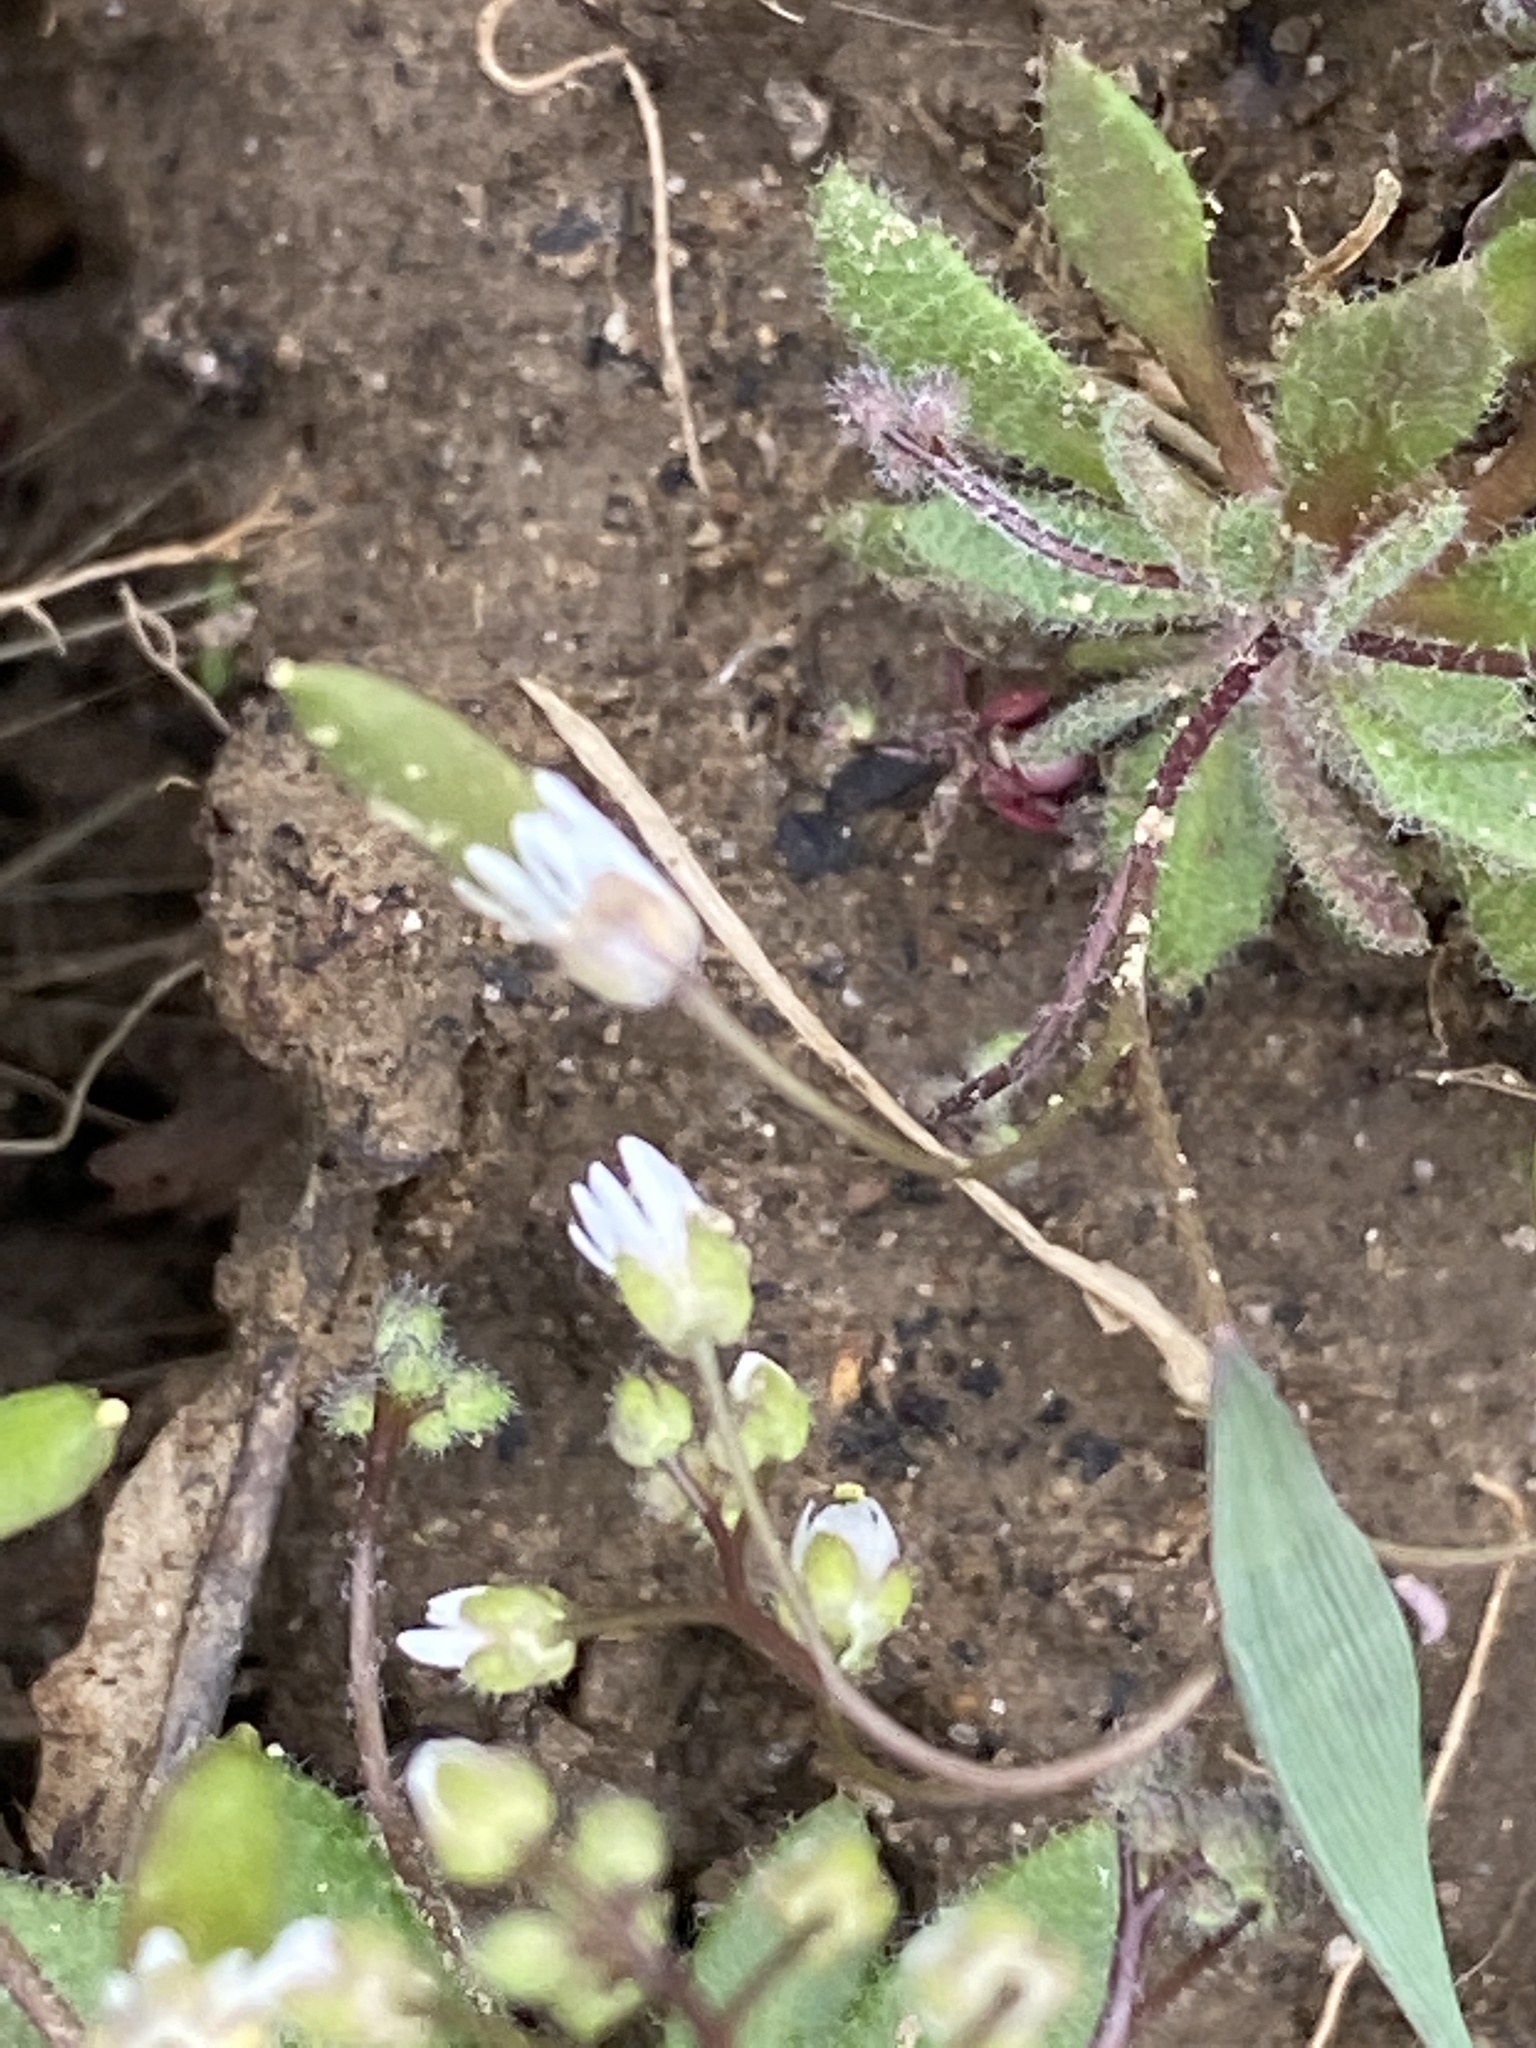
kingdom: Plantae
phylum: Tracheophyta
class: Magnoliopsida
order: Brassicales
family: Brassicaceae
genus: Draba
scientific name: Draba verna
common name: Spring draba
